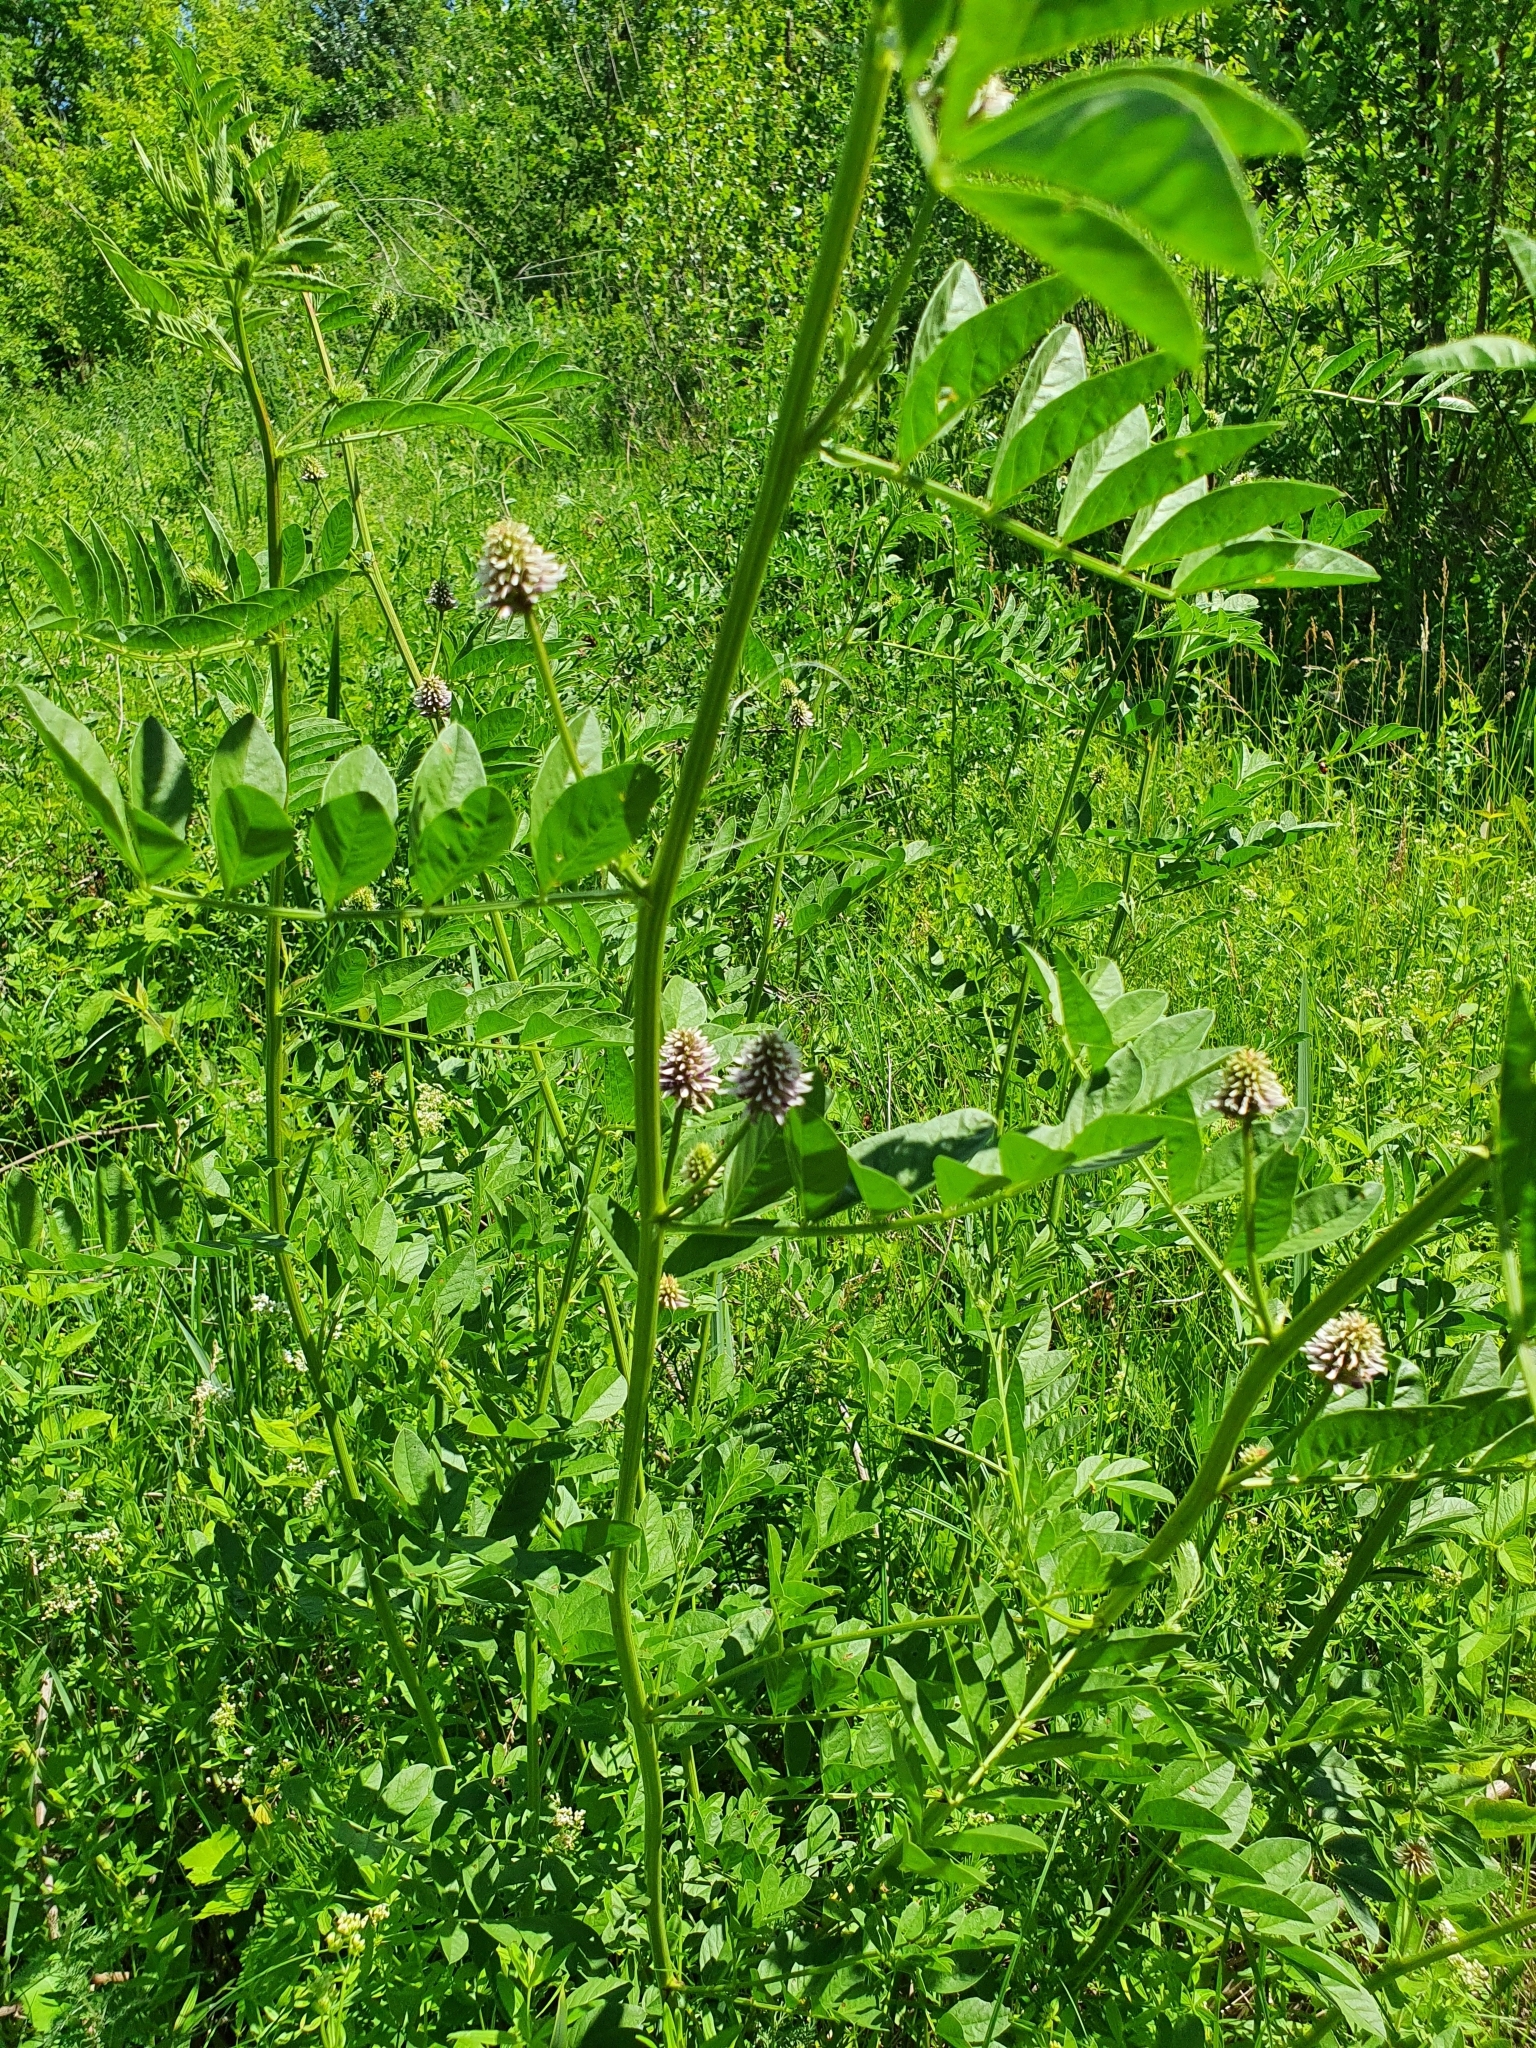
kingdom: Plantae
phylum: Tracheophyta
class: Magnoliopsida
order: Fabales
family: Fabaceae
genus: Glycyrrhiza
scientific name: Glycyrrhiza echinata
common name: German liquorice
